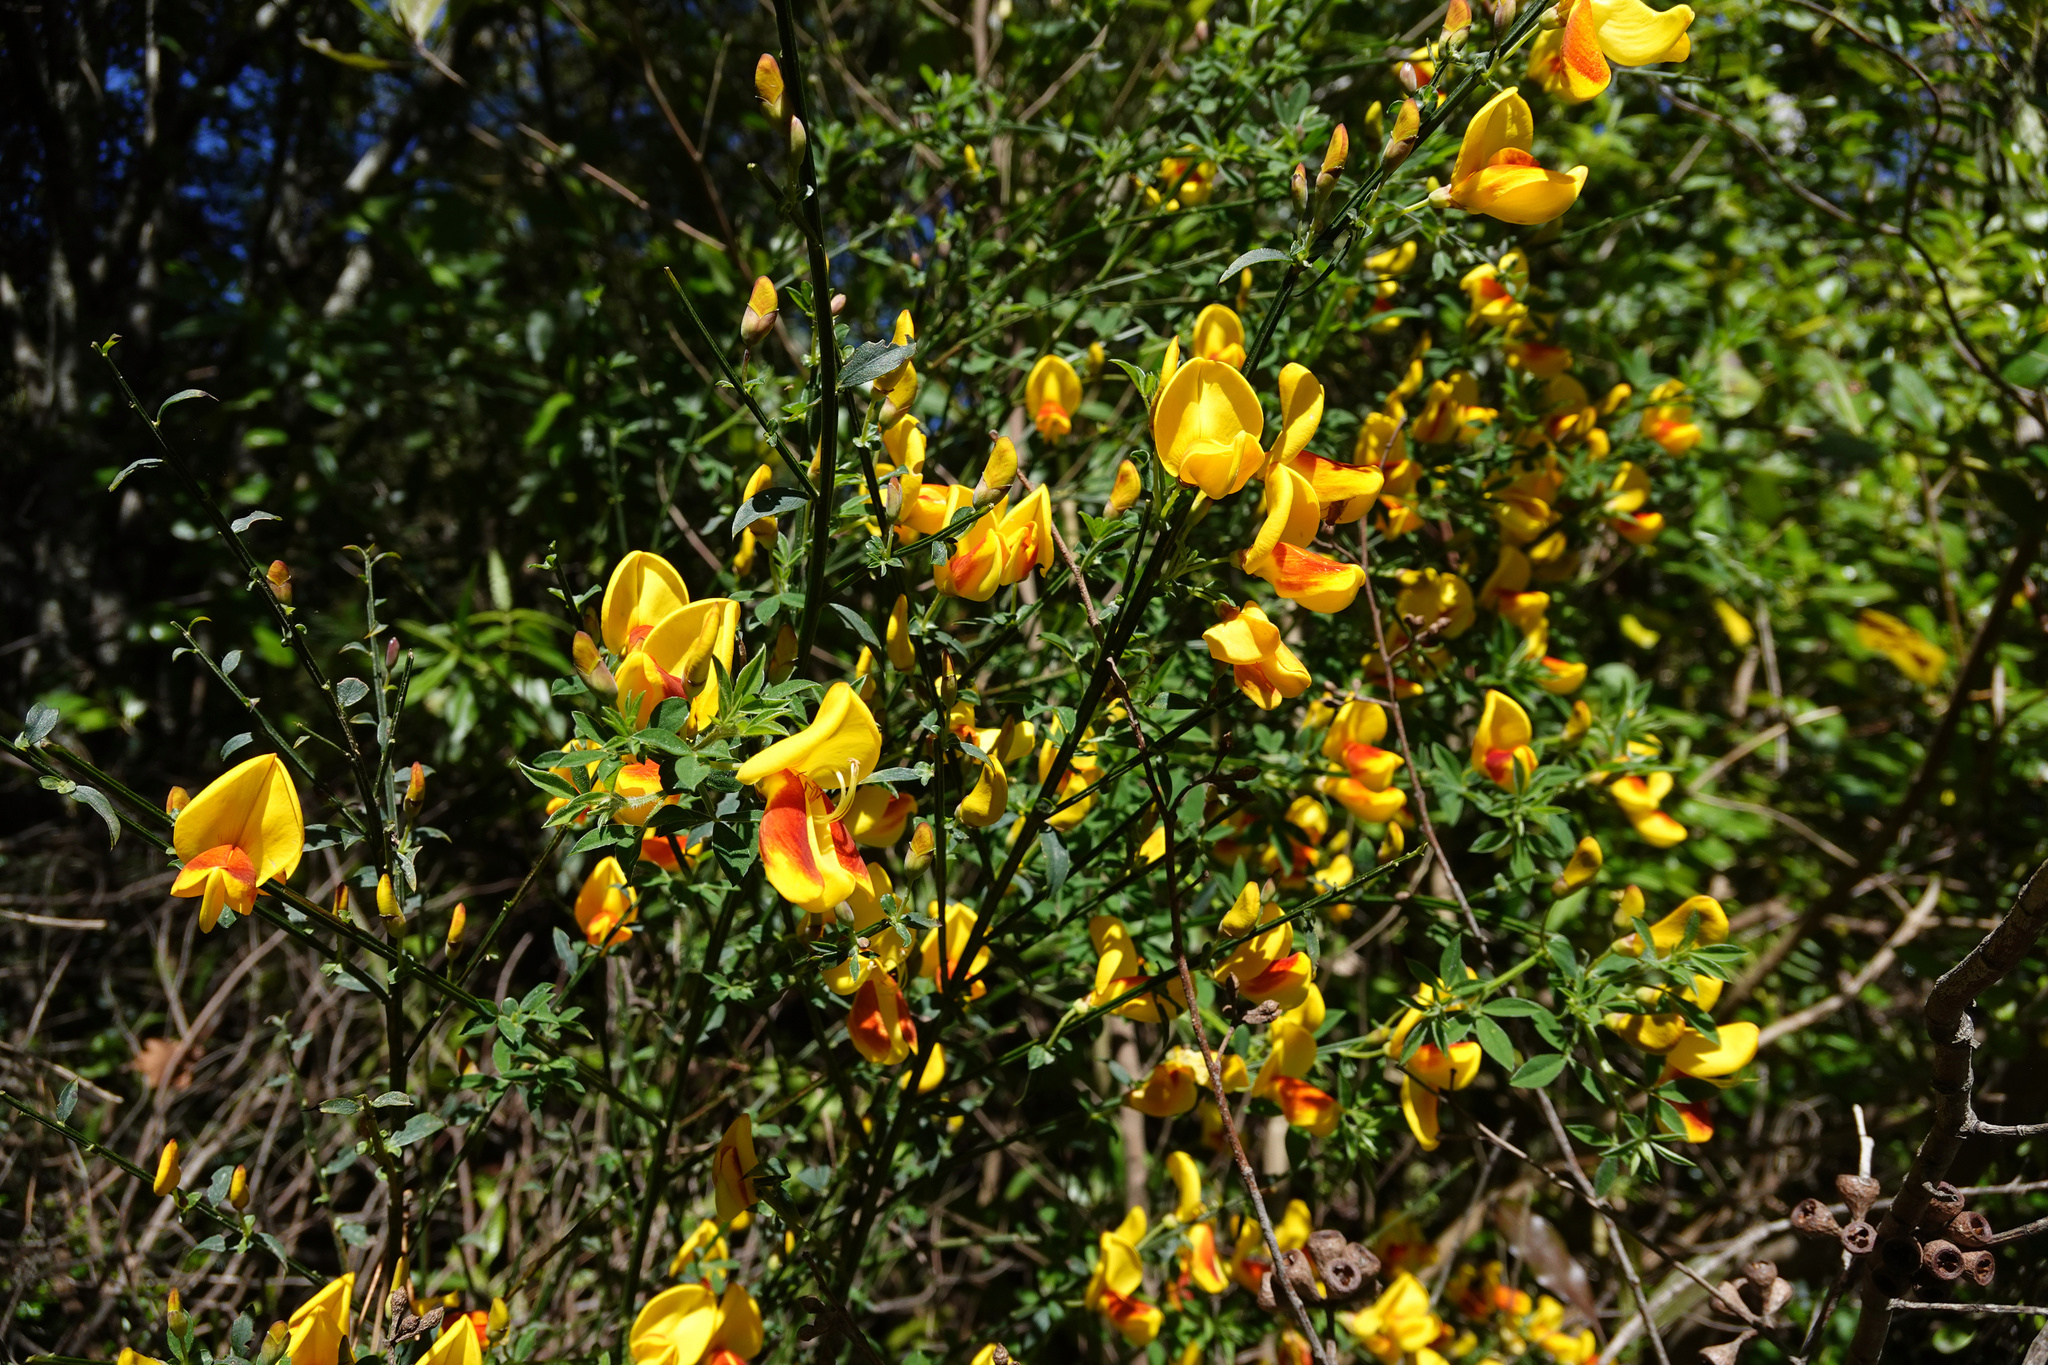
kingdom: Plantae
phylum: Tracheophyta
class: Magnoliopsida
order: Fabales
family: Fabaceae
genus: Cytisus
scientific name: Cytisus scoparius
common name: Scotch broom
